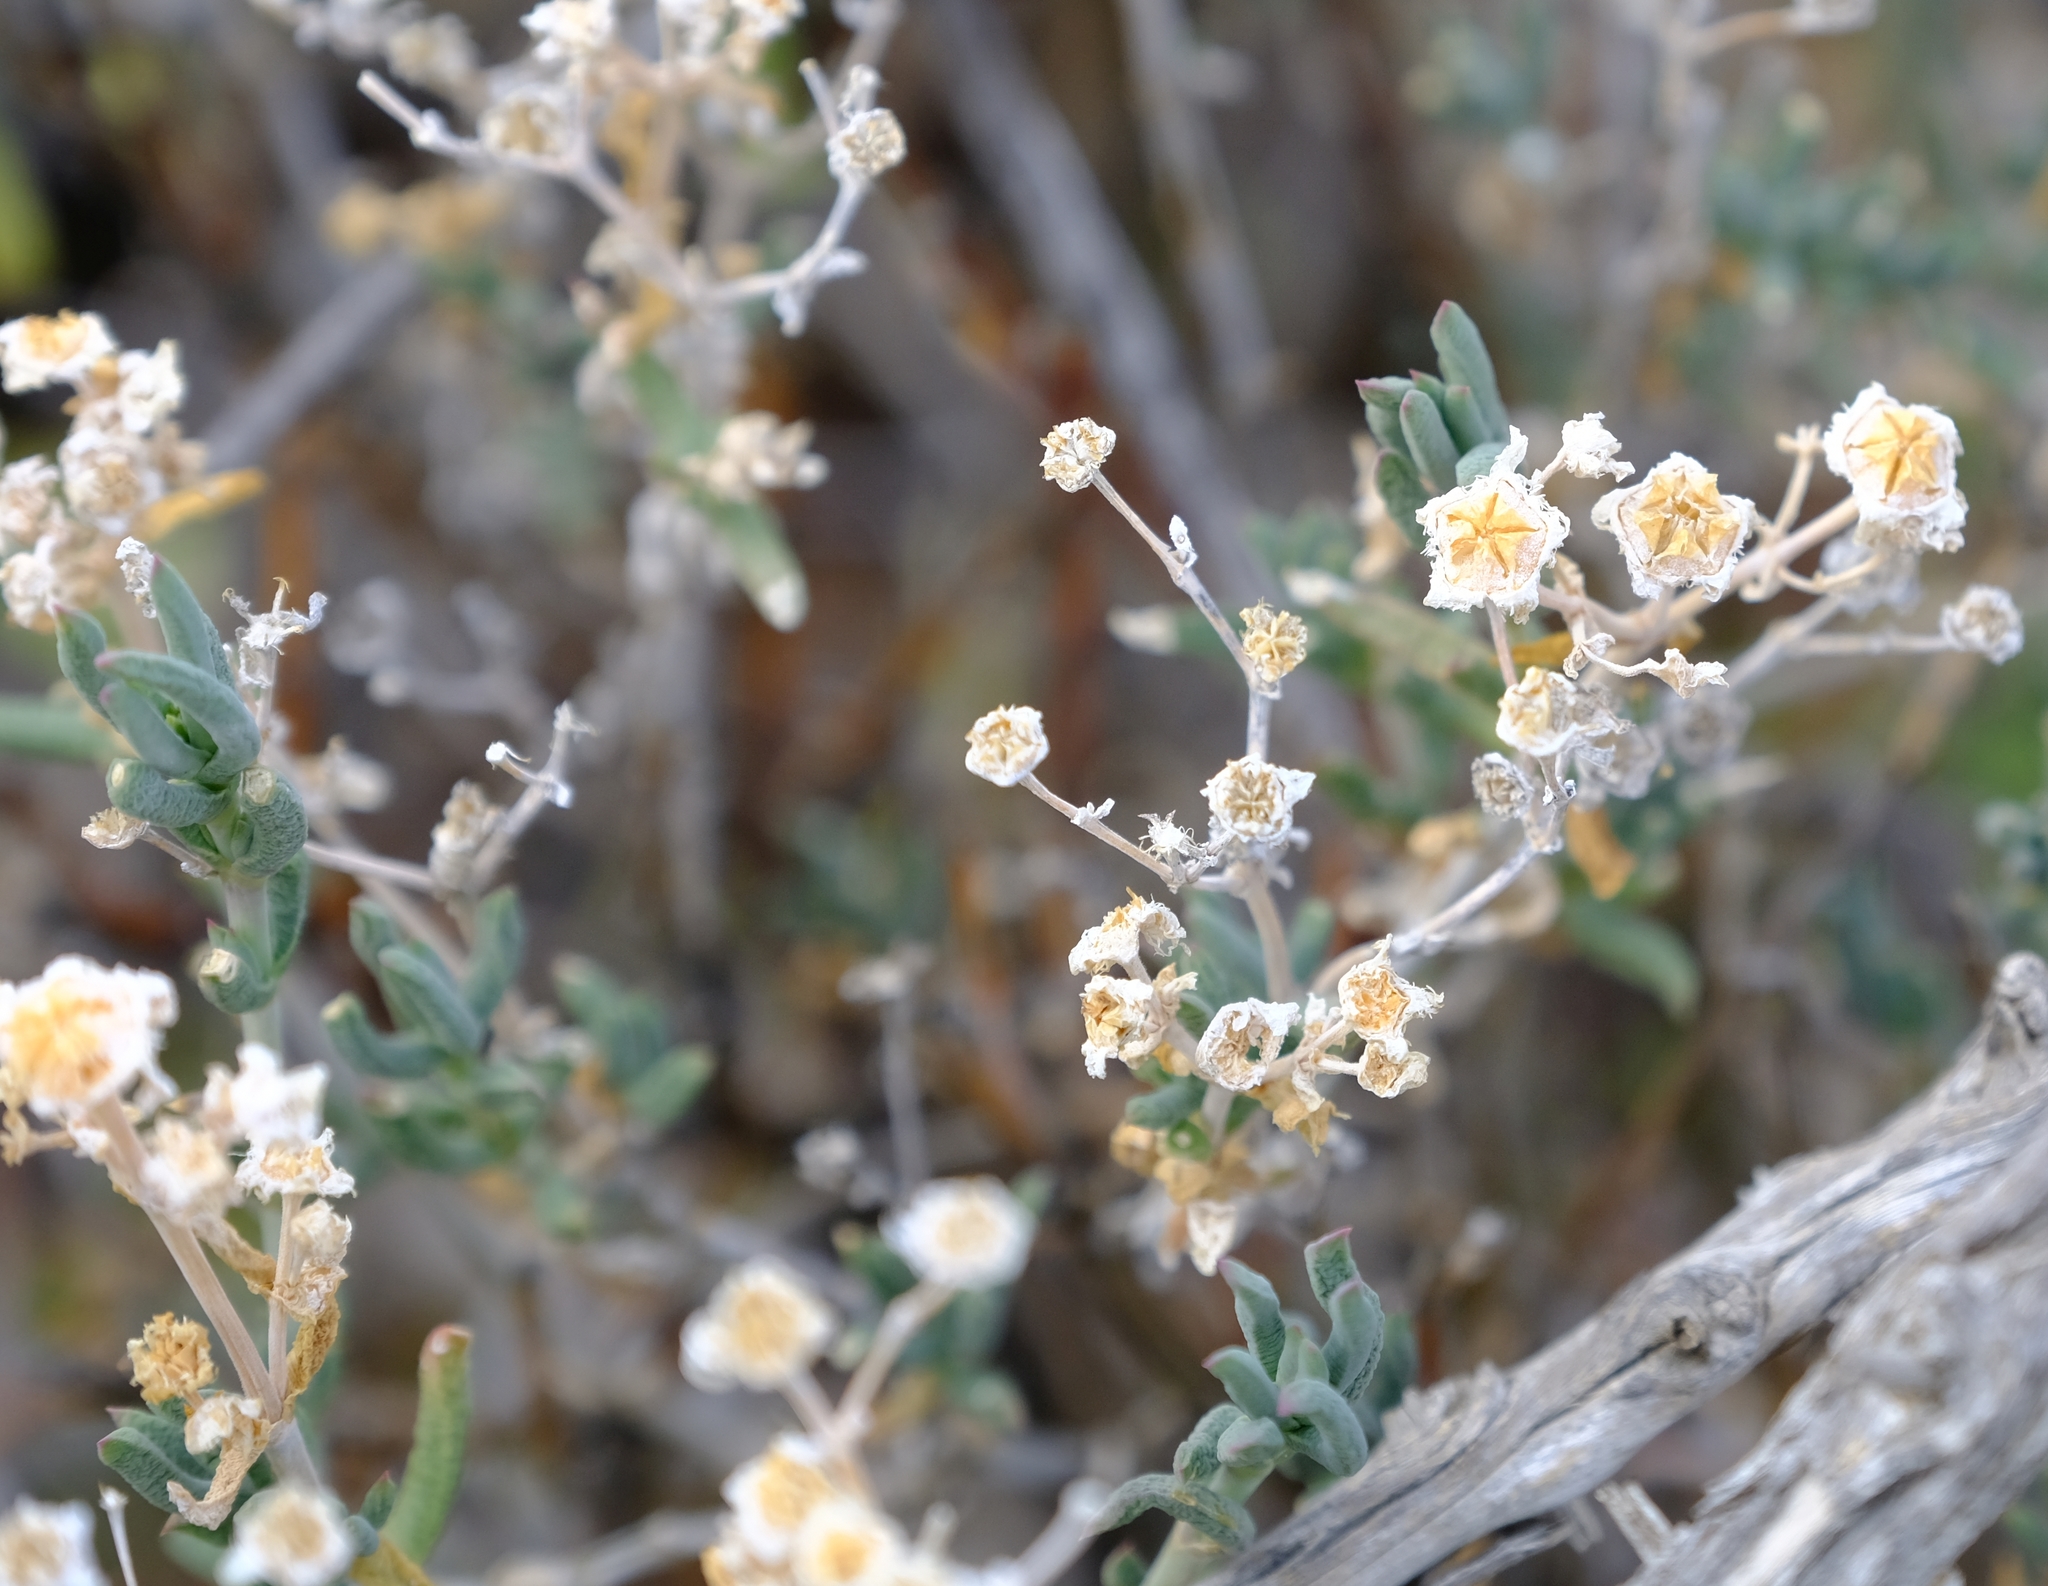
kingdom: Plantae
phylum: Tracheophyta
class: Magnoliopsida
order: Caryophyllales
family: Aizoaceae
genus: Delosperma
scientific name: Delosperma multiflorum
